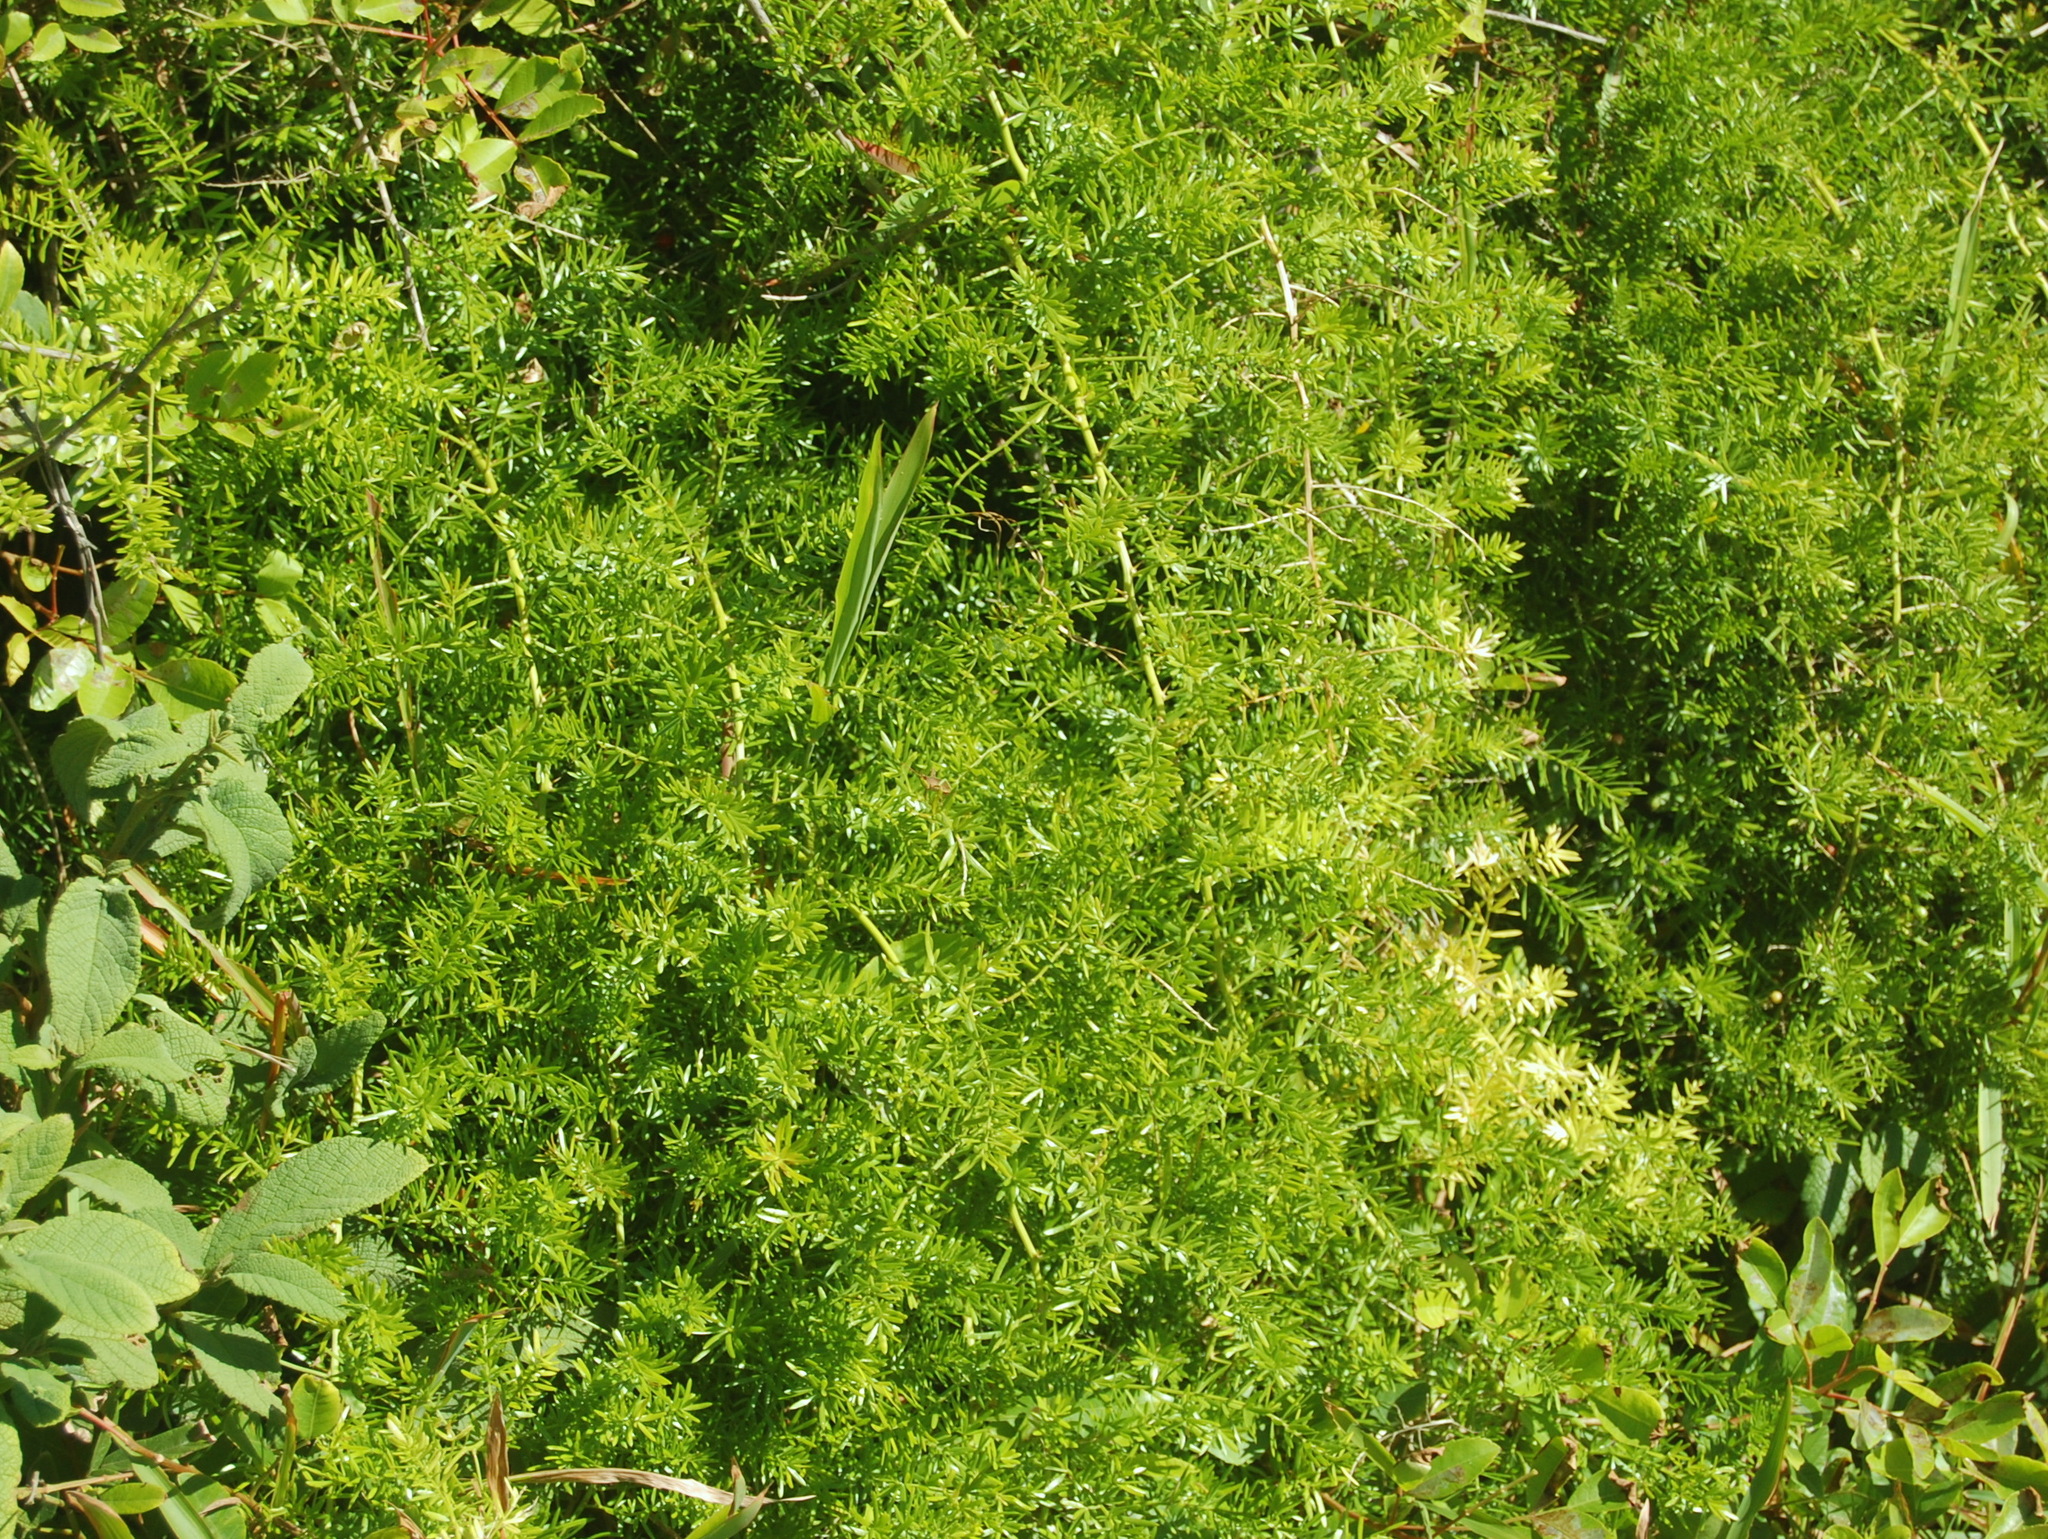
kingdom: Plantae
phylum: Tracheophyta
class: Liliopsida
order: Asparagales
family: Asparagaceae
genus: Asparagus
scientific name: Asparagus aethiopicus
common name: Sprenger's asparagus fern
